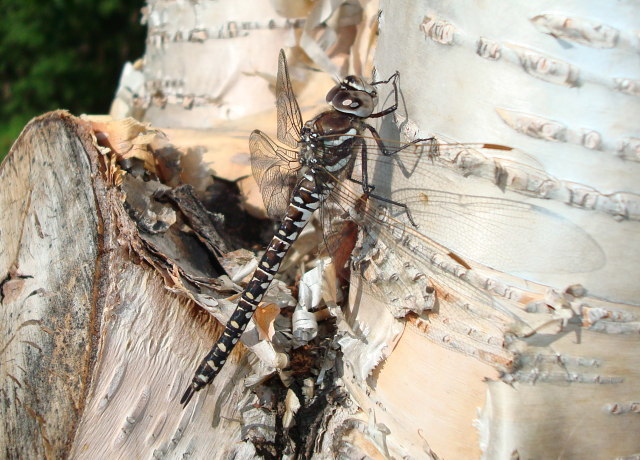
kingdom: Animalia
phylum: Arthropoda
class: Insecta
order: Odonata
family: Aeshnidae
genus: Aeshna
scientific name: Aeshna juncea
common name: Moorland hawker
